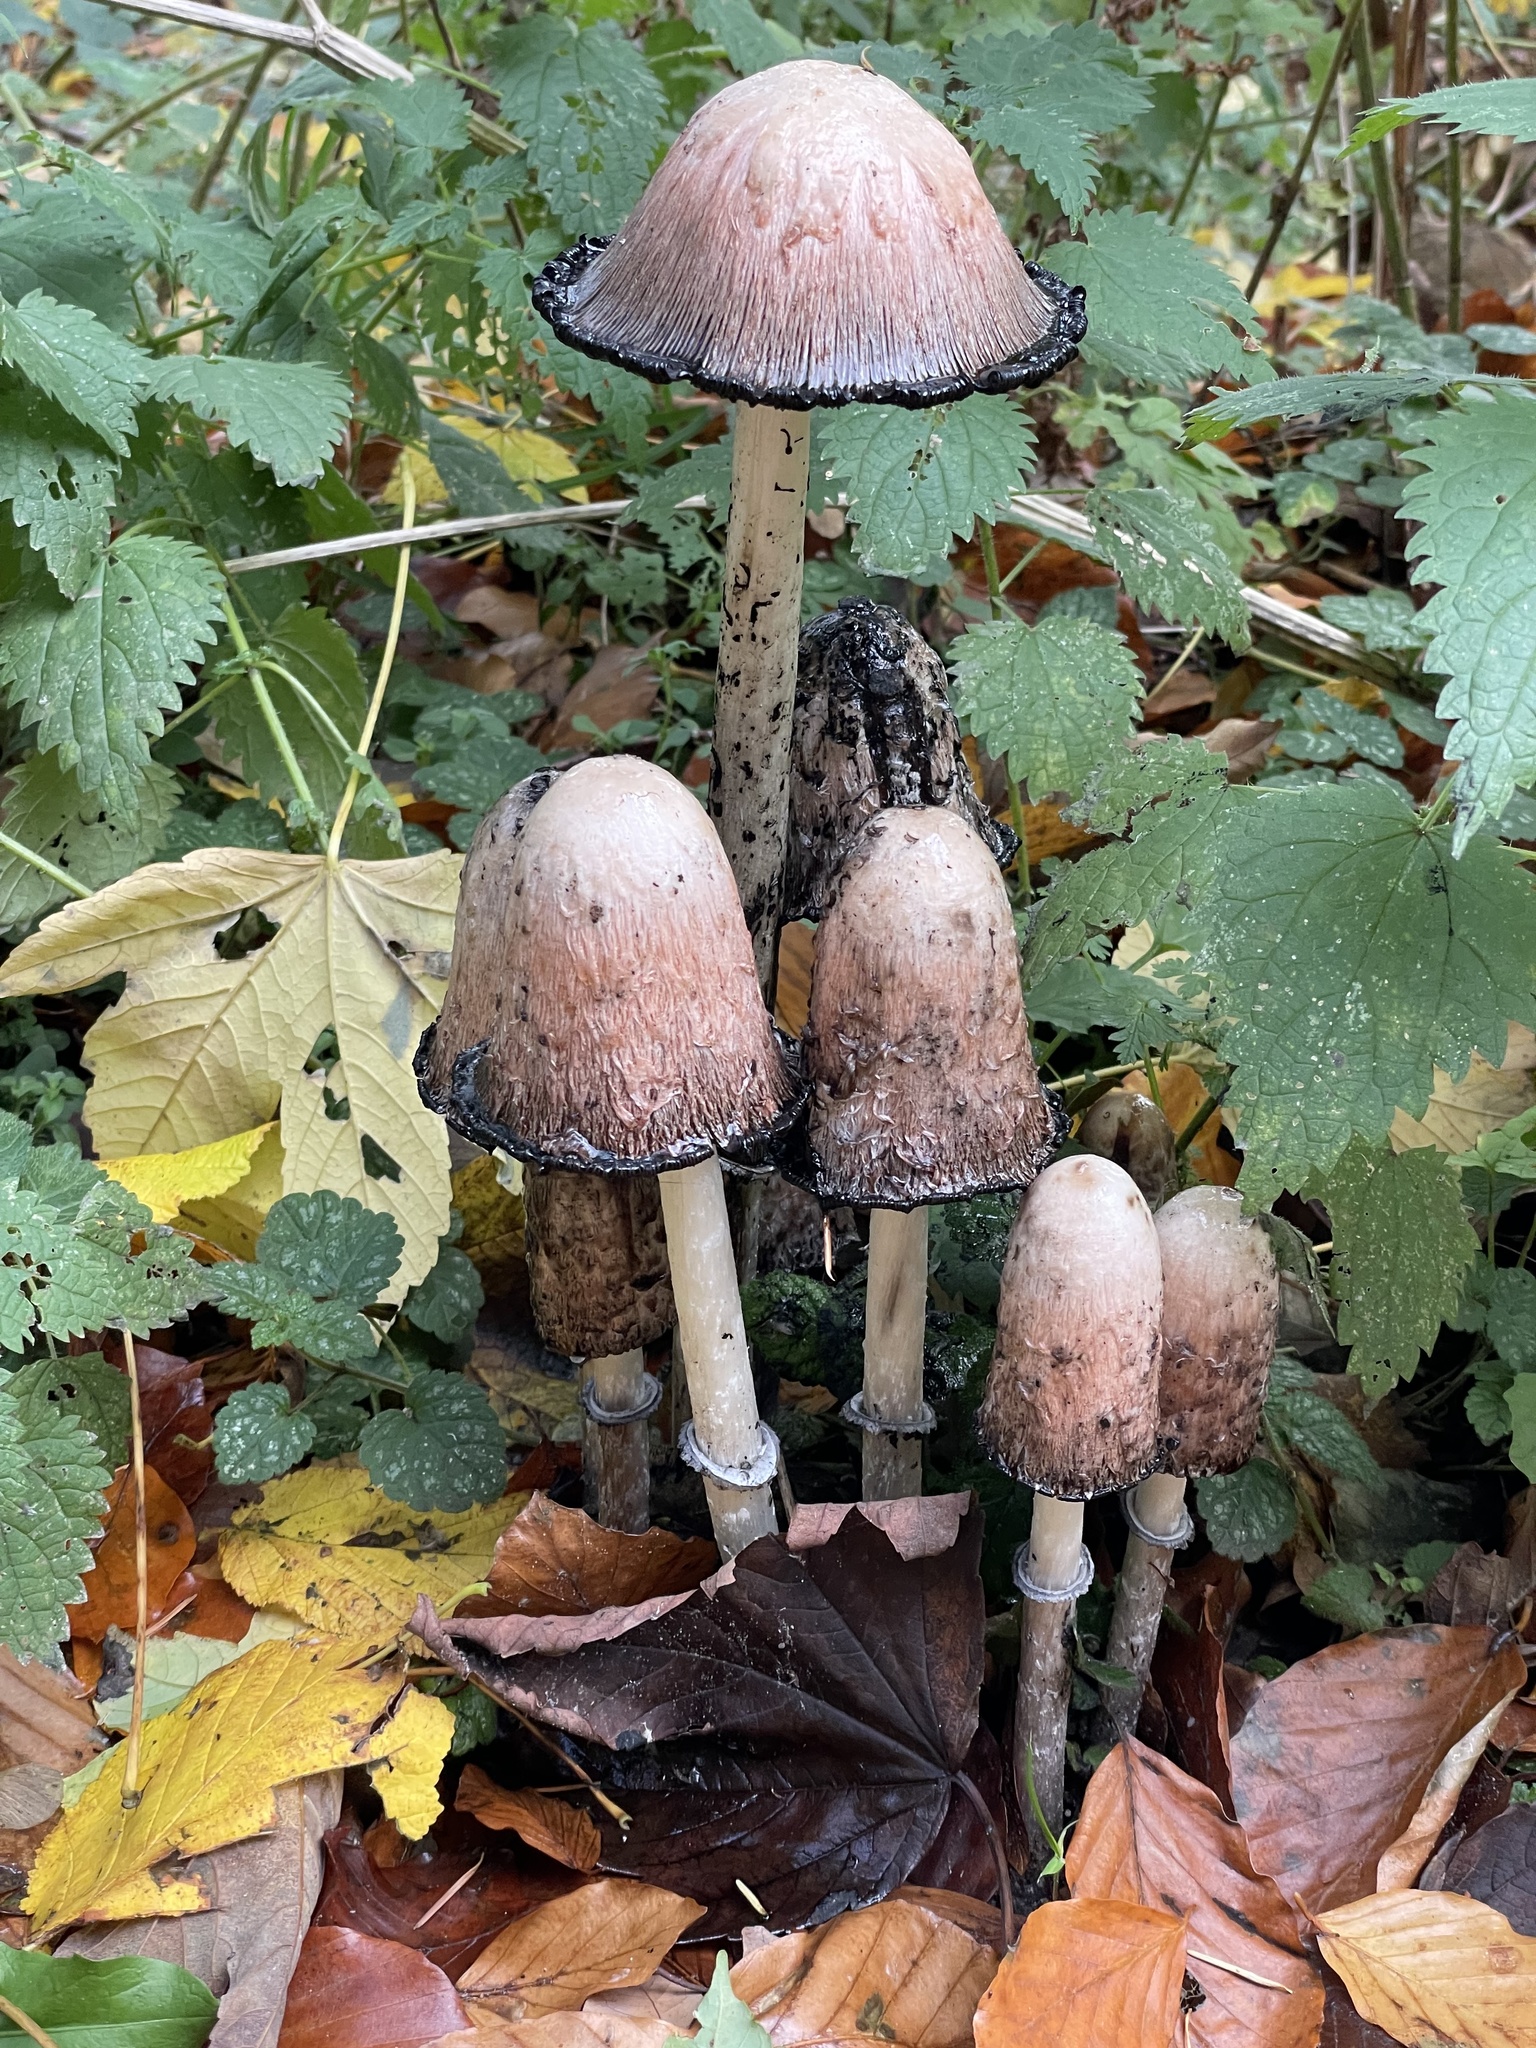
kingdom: Fungi
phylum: Basidiomycota
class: Agaricomycetes
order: Agaricales
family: Agaricaceae
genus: Coprinus
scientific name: Coprinus comatus
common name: Lawyer's wig
